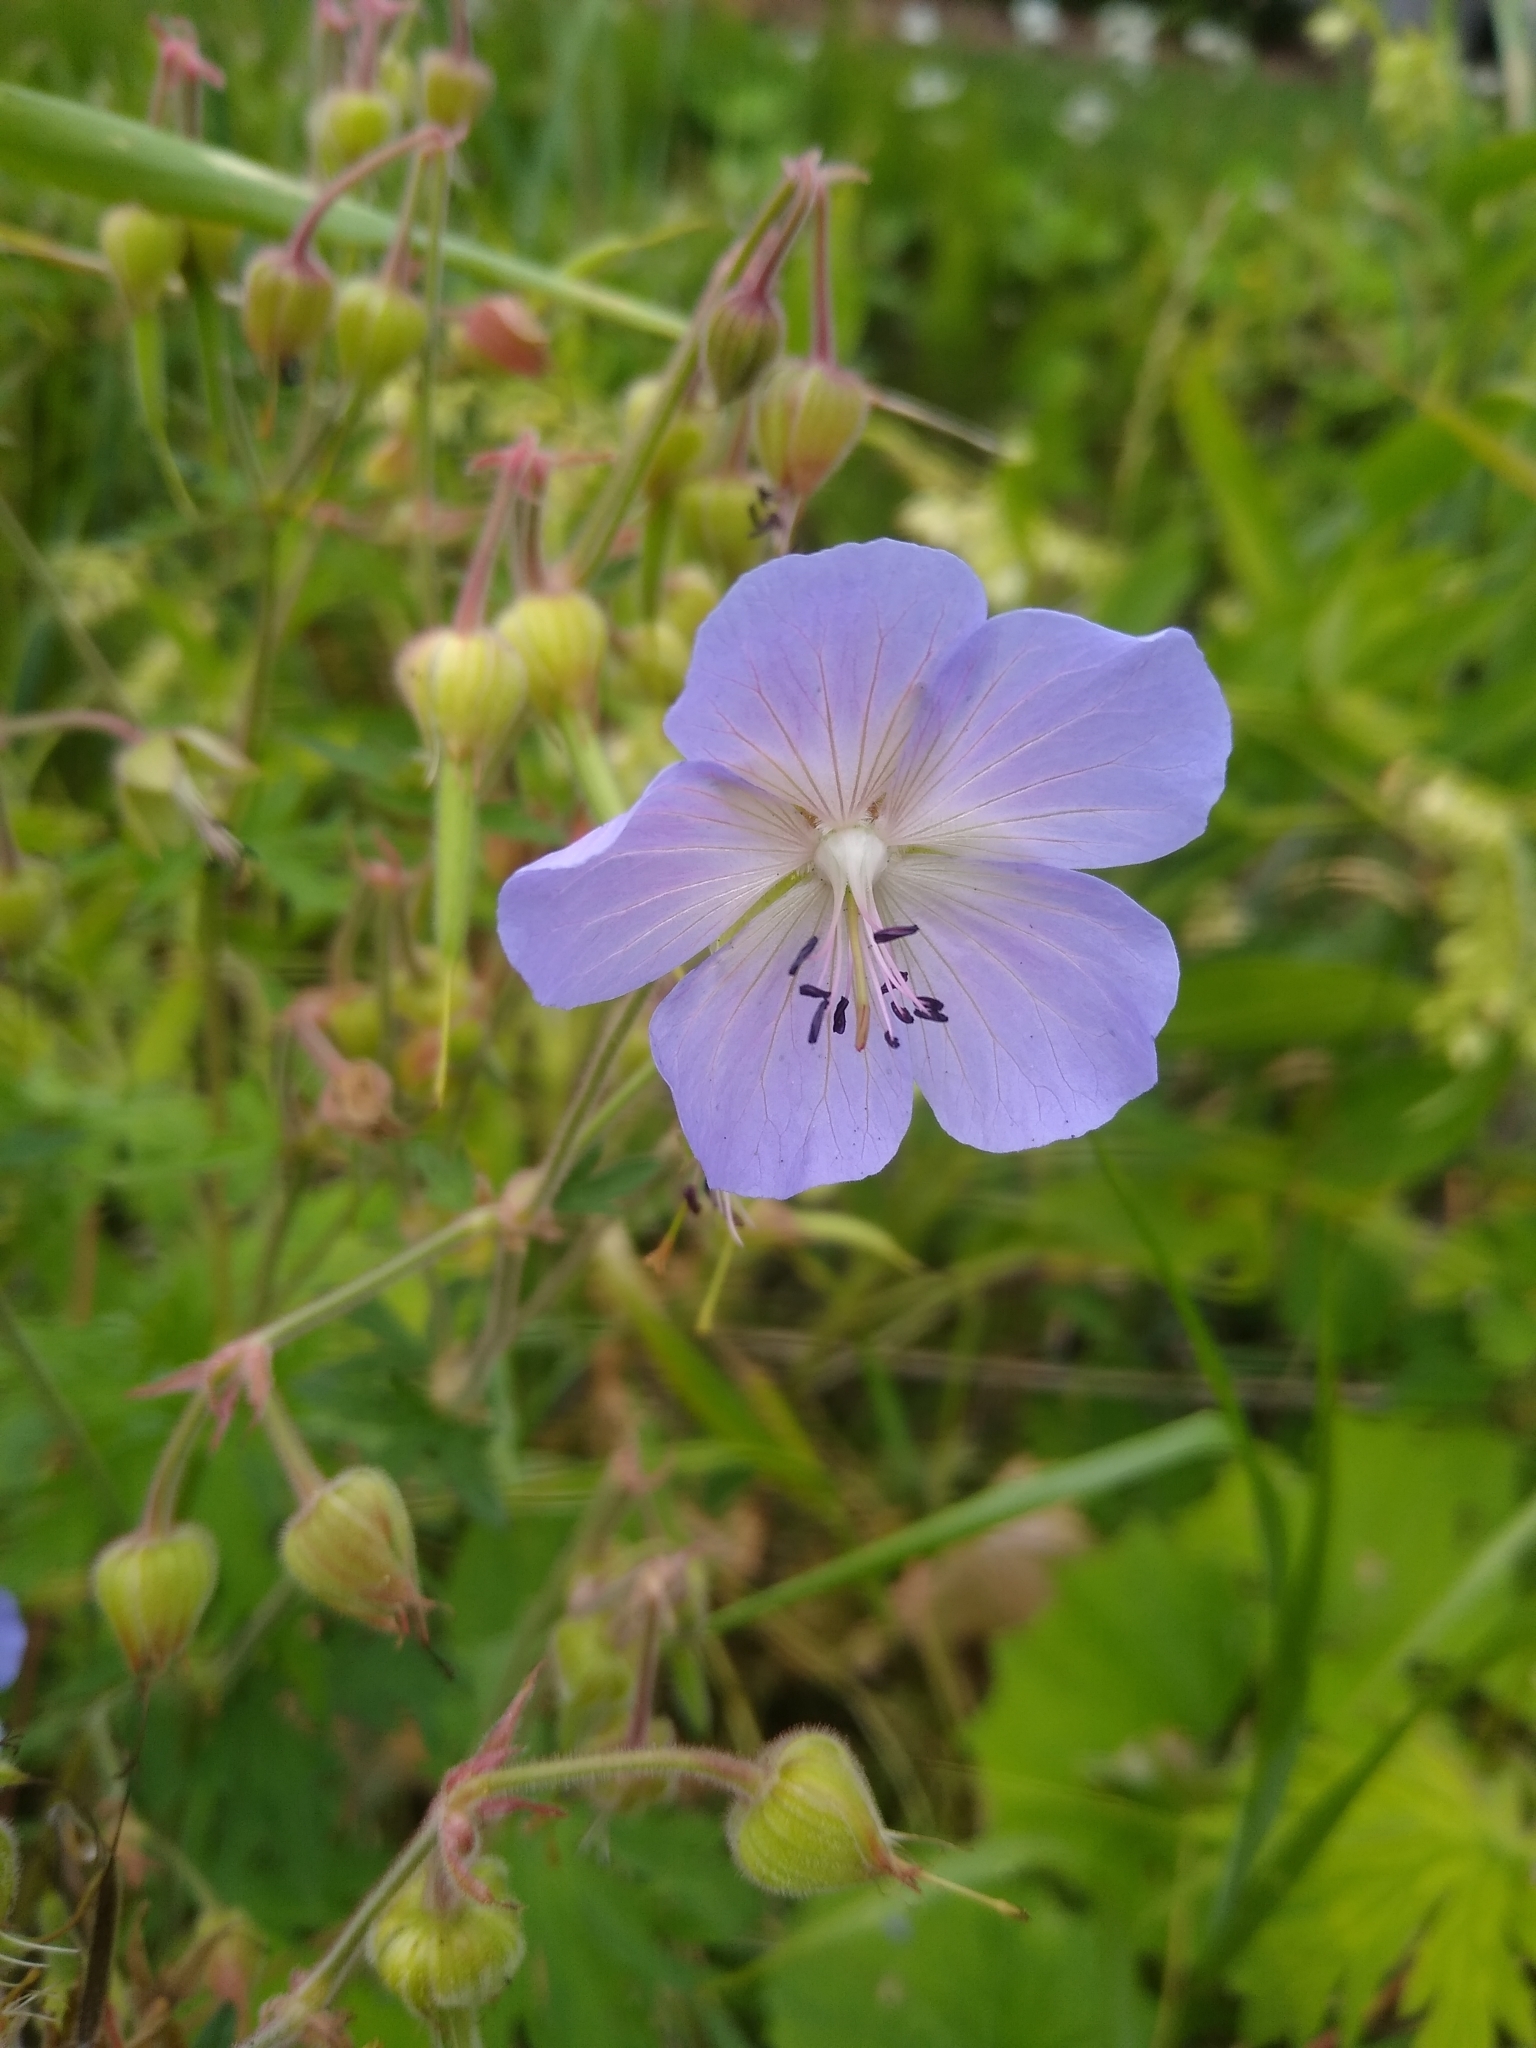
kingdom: Plantae
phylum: Tracheophyta
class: Magnoliopsida
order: Geraniales
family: Geraniaceae
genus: Geranium
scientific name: Geranium pratense
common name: Meadow crane's-bill
